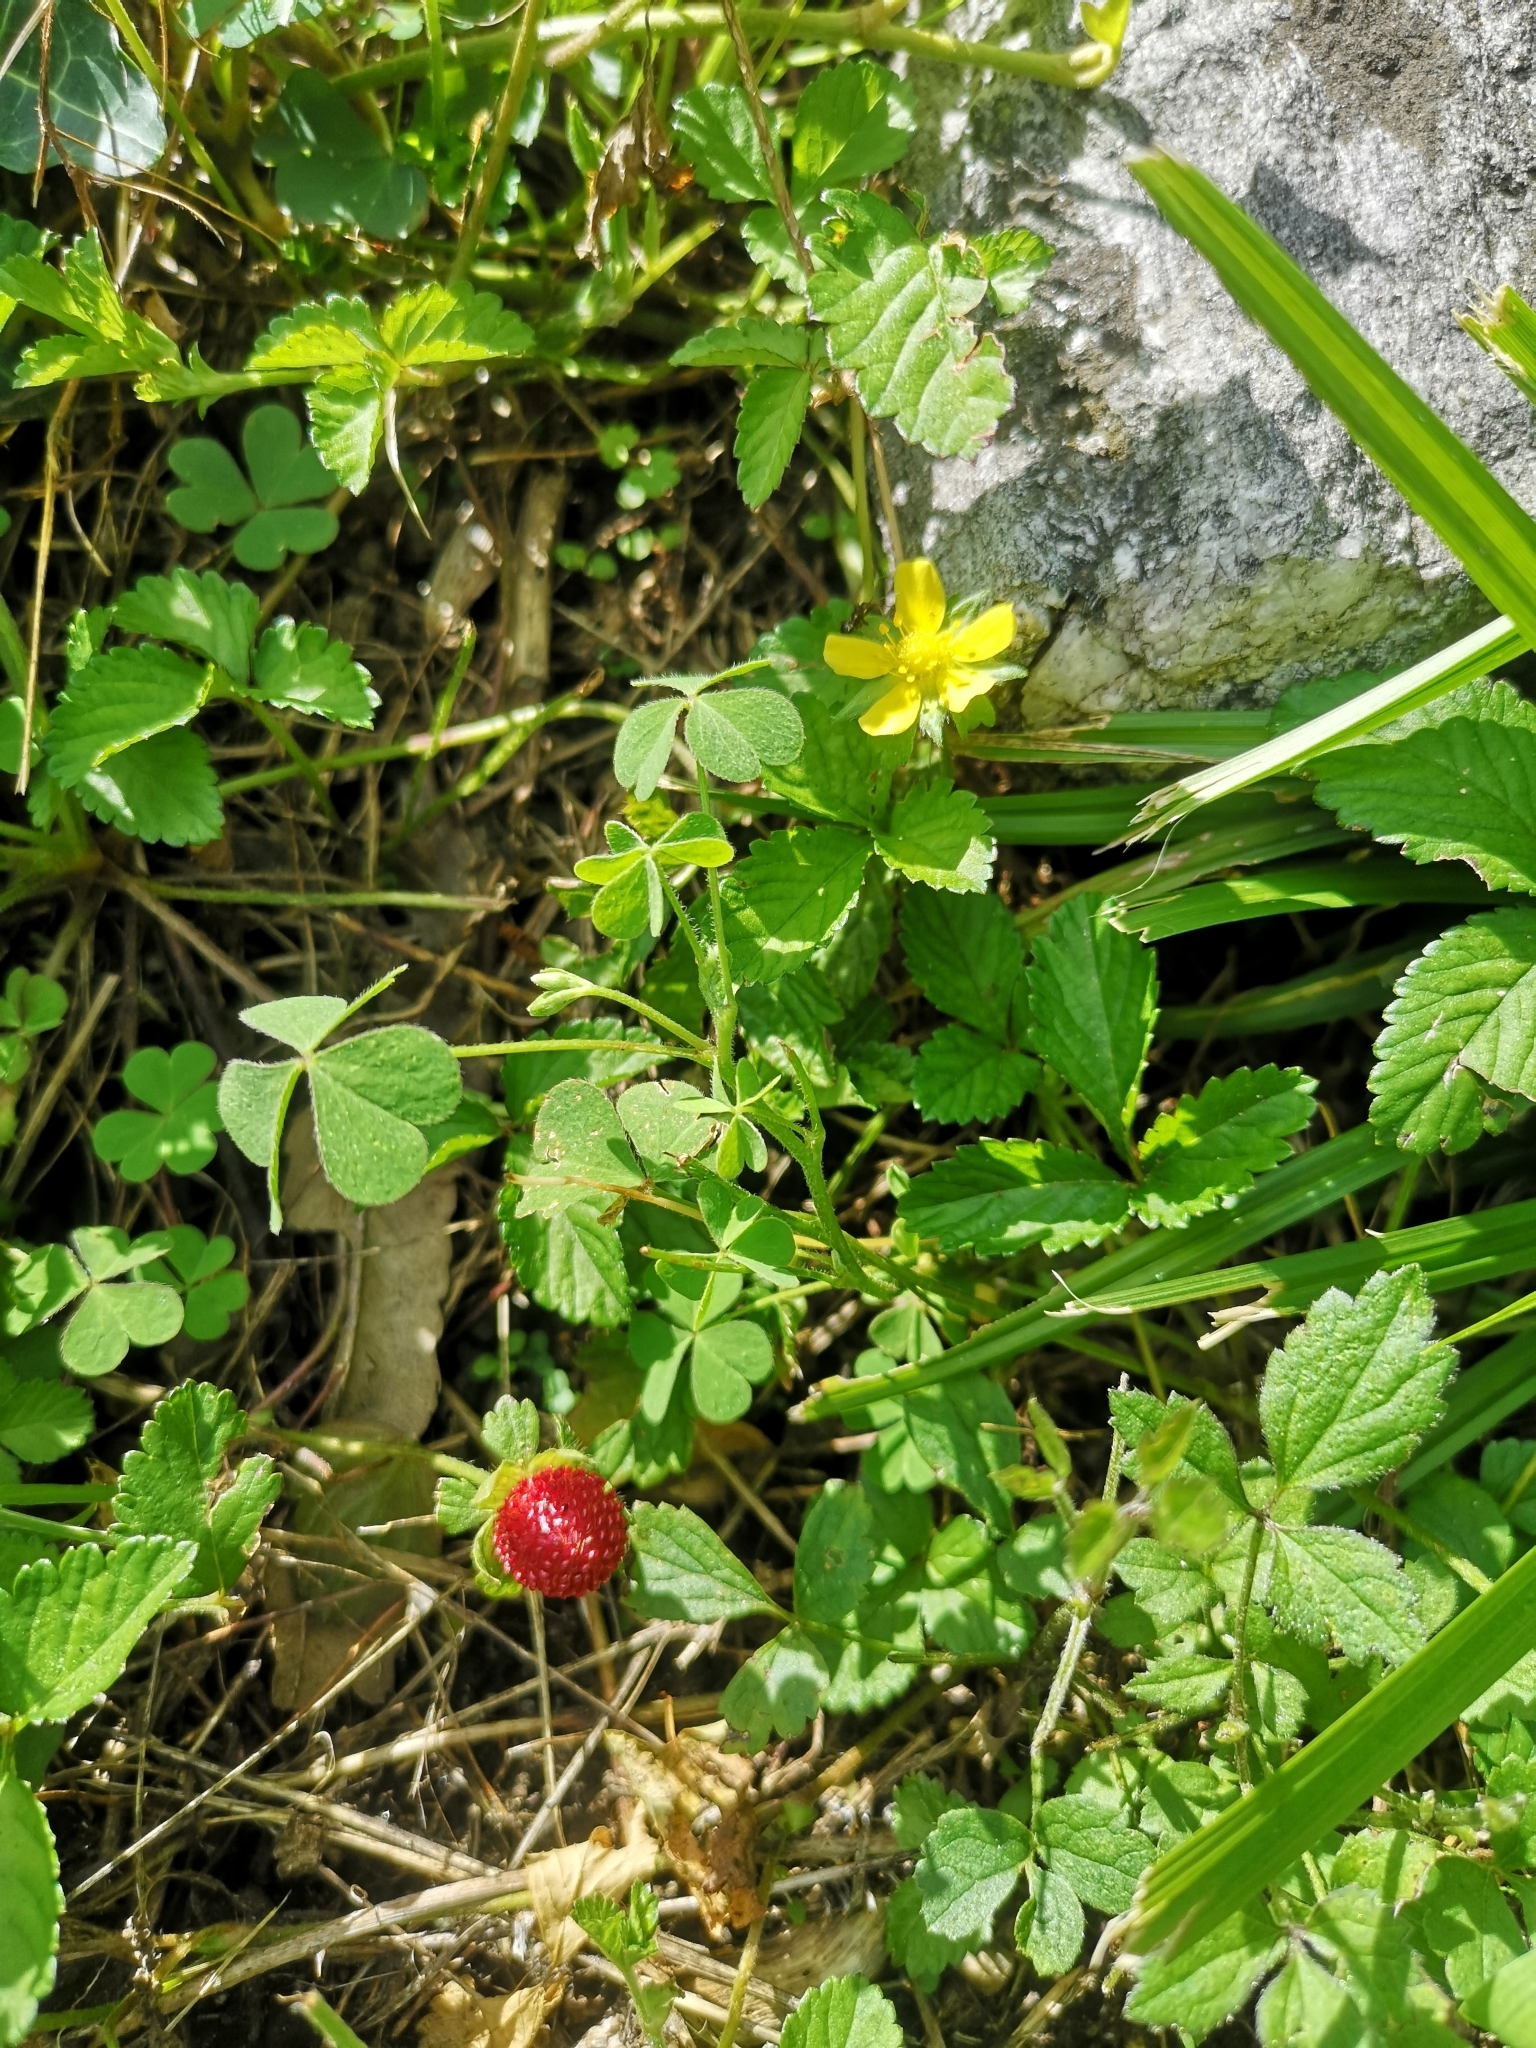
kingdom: Plantae
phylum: Tracheophyta
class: Magnoliopsida
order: Rosales
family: Rosaceae
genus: Potentilla
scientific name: Potentilla indica
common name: Yellow-flowered strawberry
